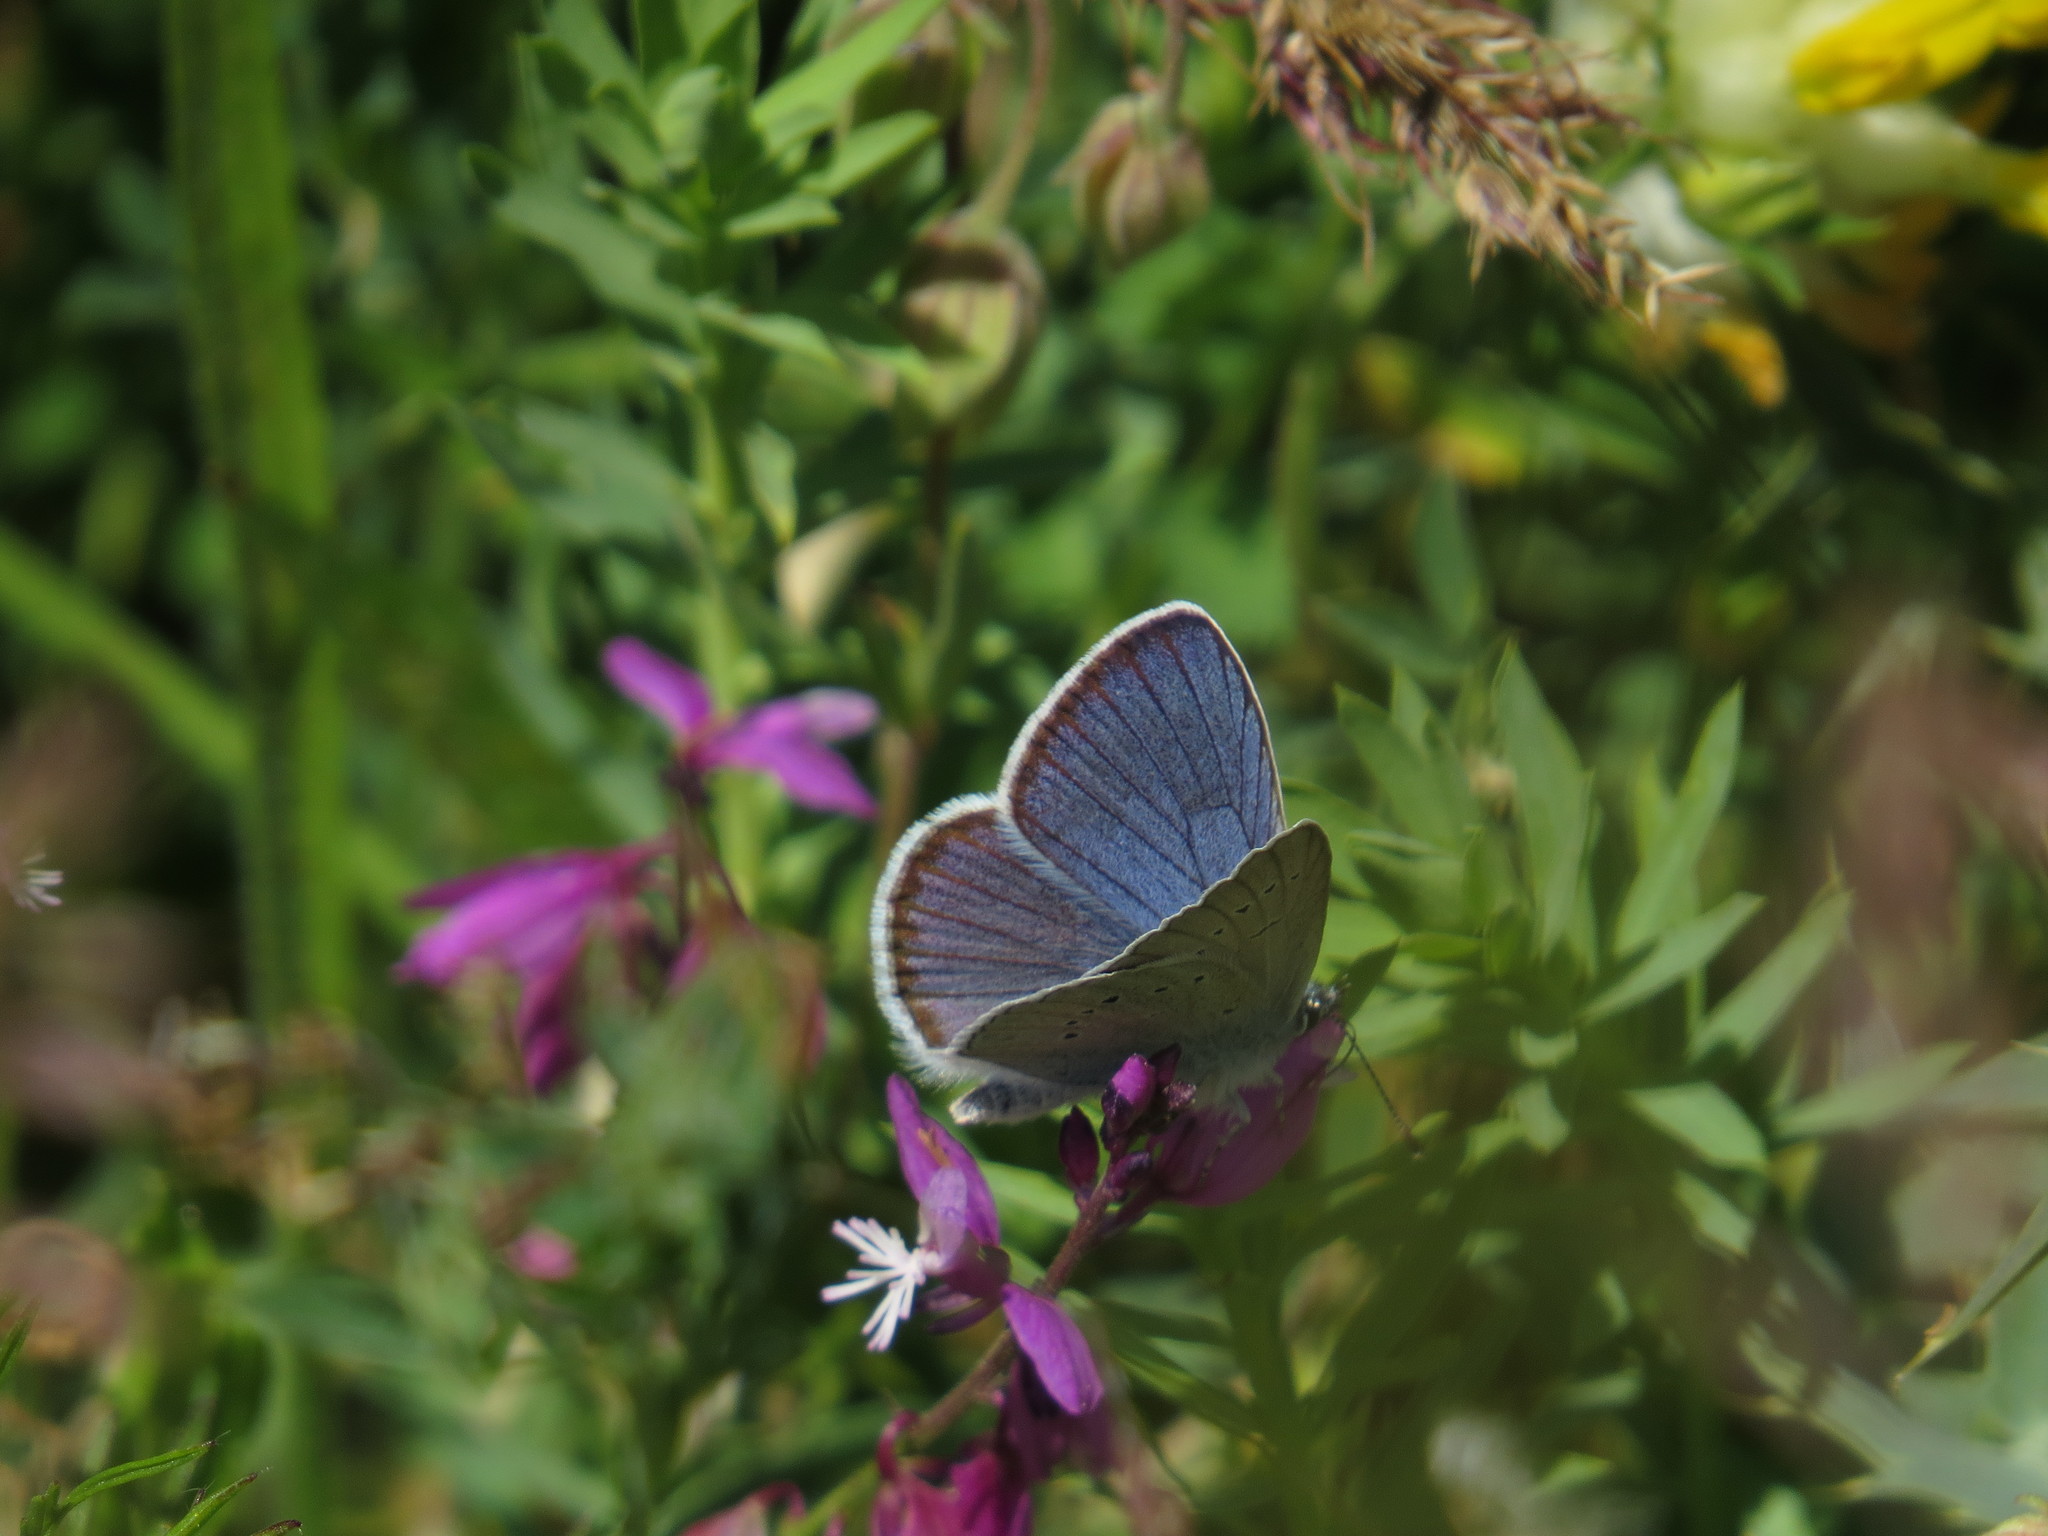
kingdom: Animalia
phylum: Arthropoda
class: Insecta
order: Lepidoptera
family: Lycaenidae
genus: Cyaniris
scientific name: Cyaniris semiargus
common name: Mazarine blue
